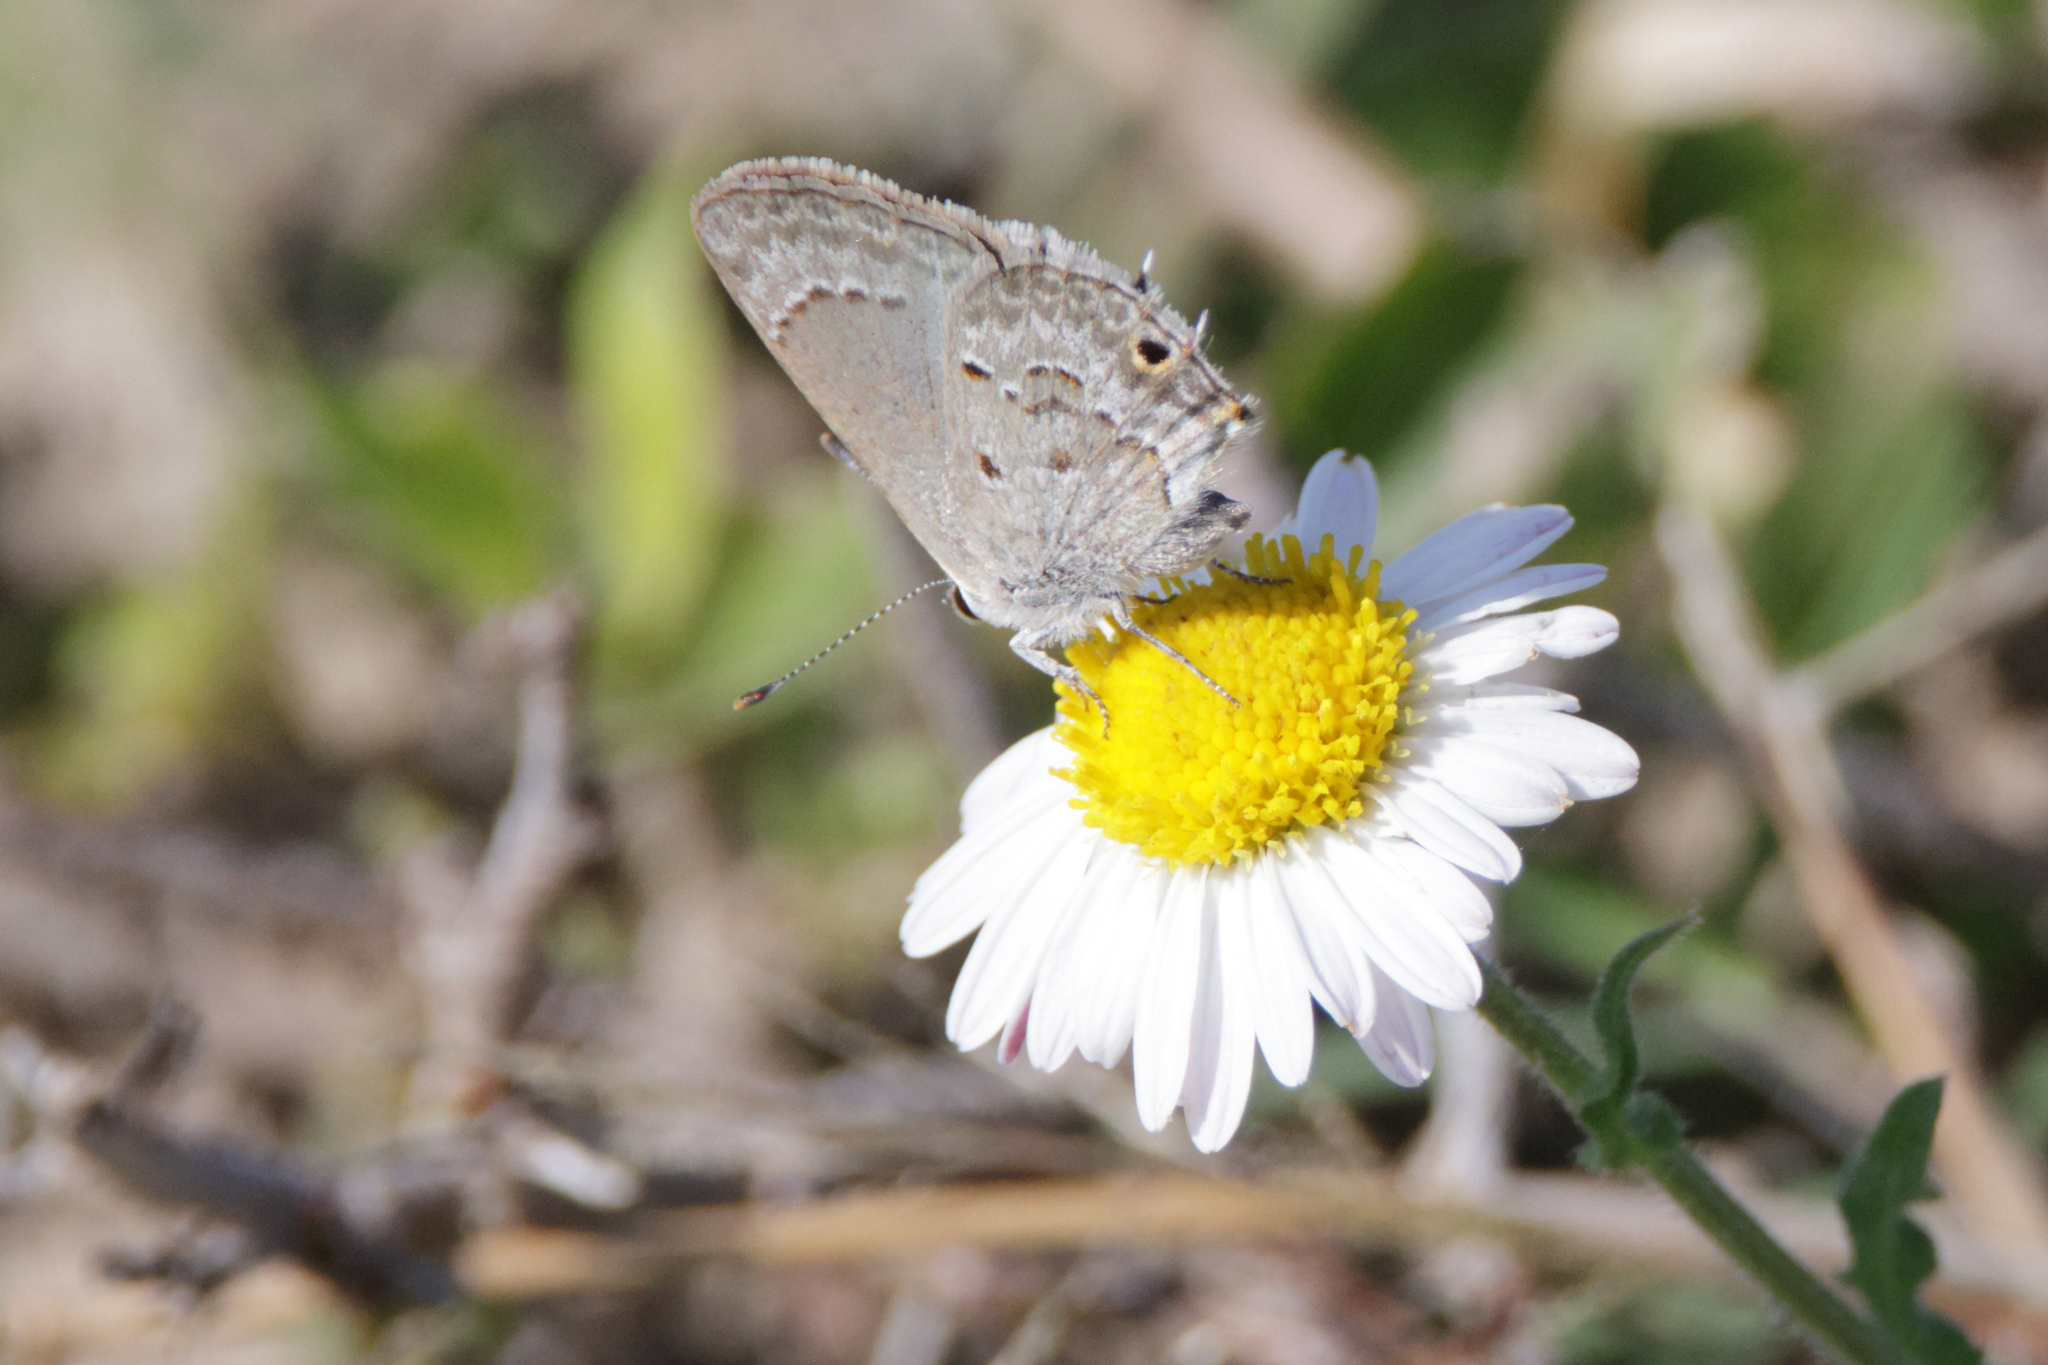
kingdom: Animalia
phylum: Arthropoda
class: Insecta
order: Lepidoptera
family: Lycaenidae
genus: Callicista
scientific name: Callicista columella
